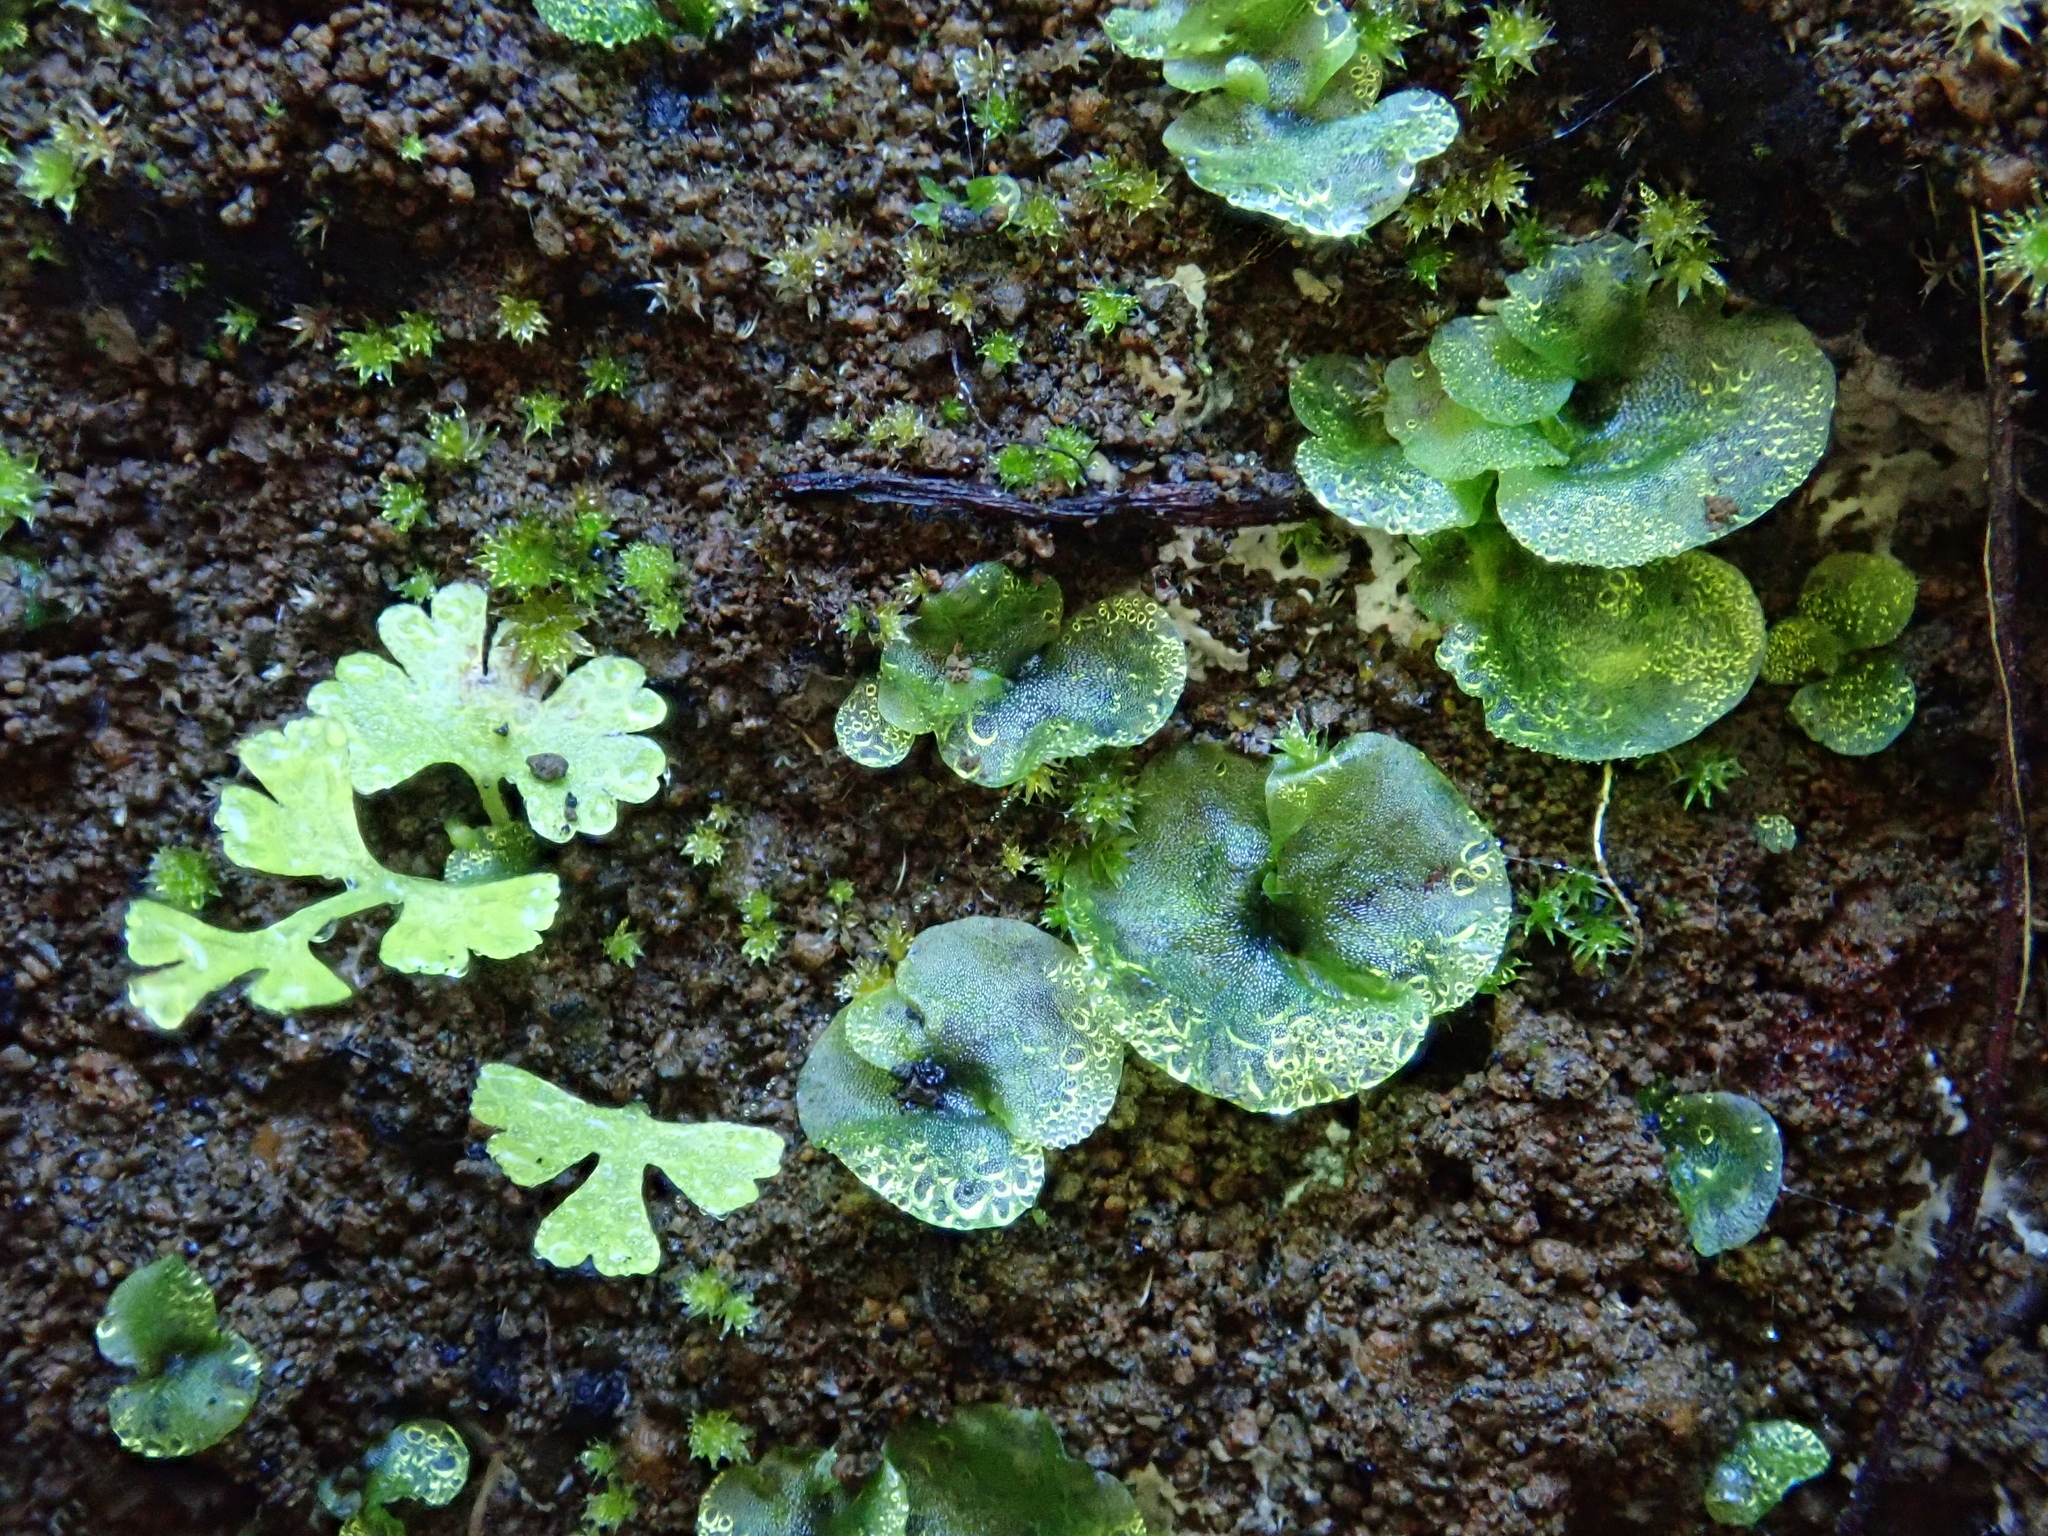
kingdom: Plantae
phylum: Tracheophyta
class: Polypodiopsida
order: Polypodiales
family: Pteridaceae
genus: Anogramma
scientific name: Anogramma leptophylla
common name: Jersey fern
